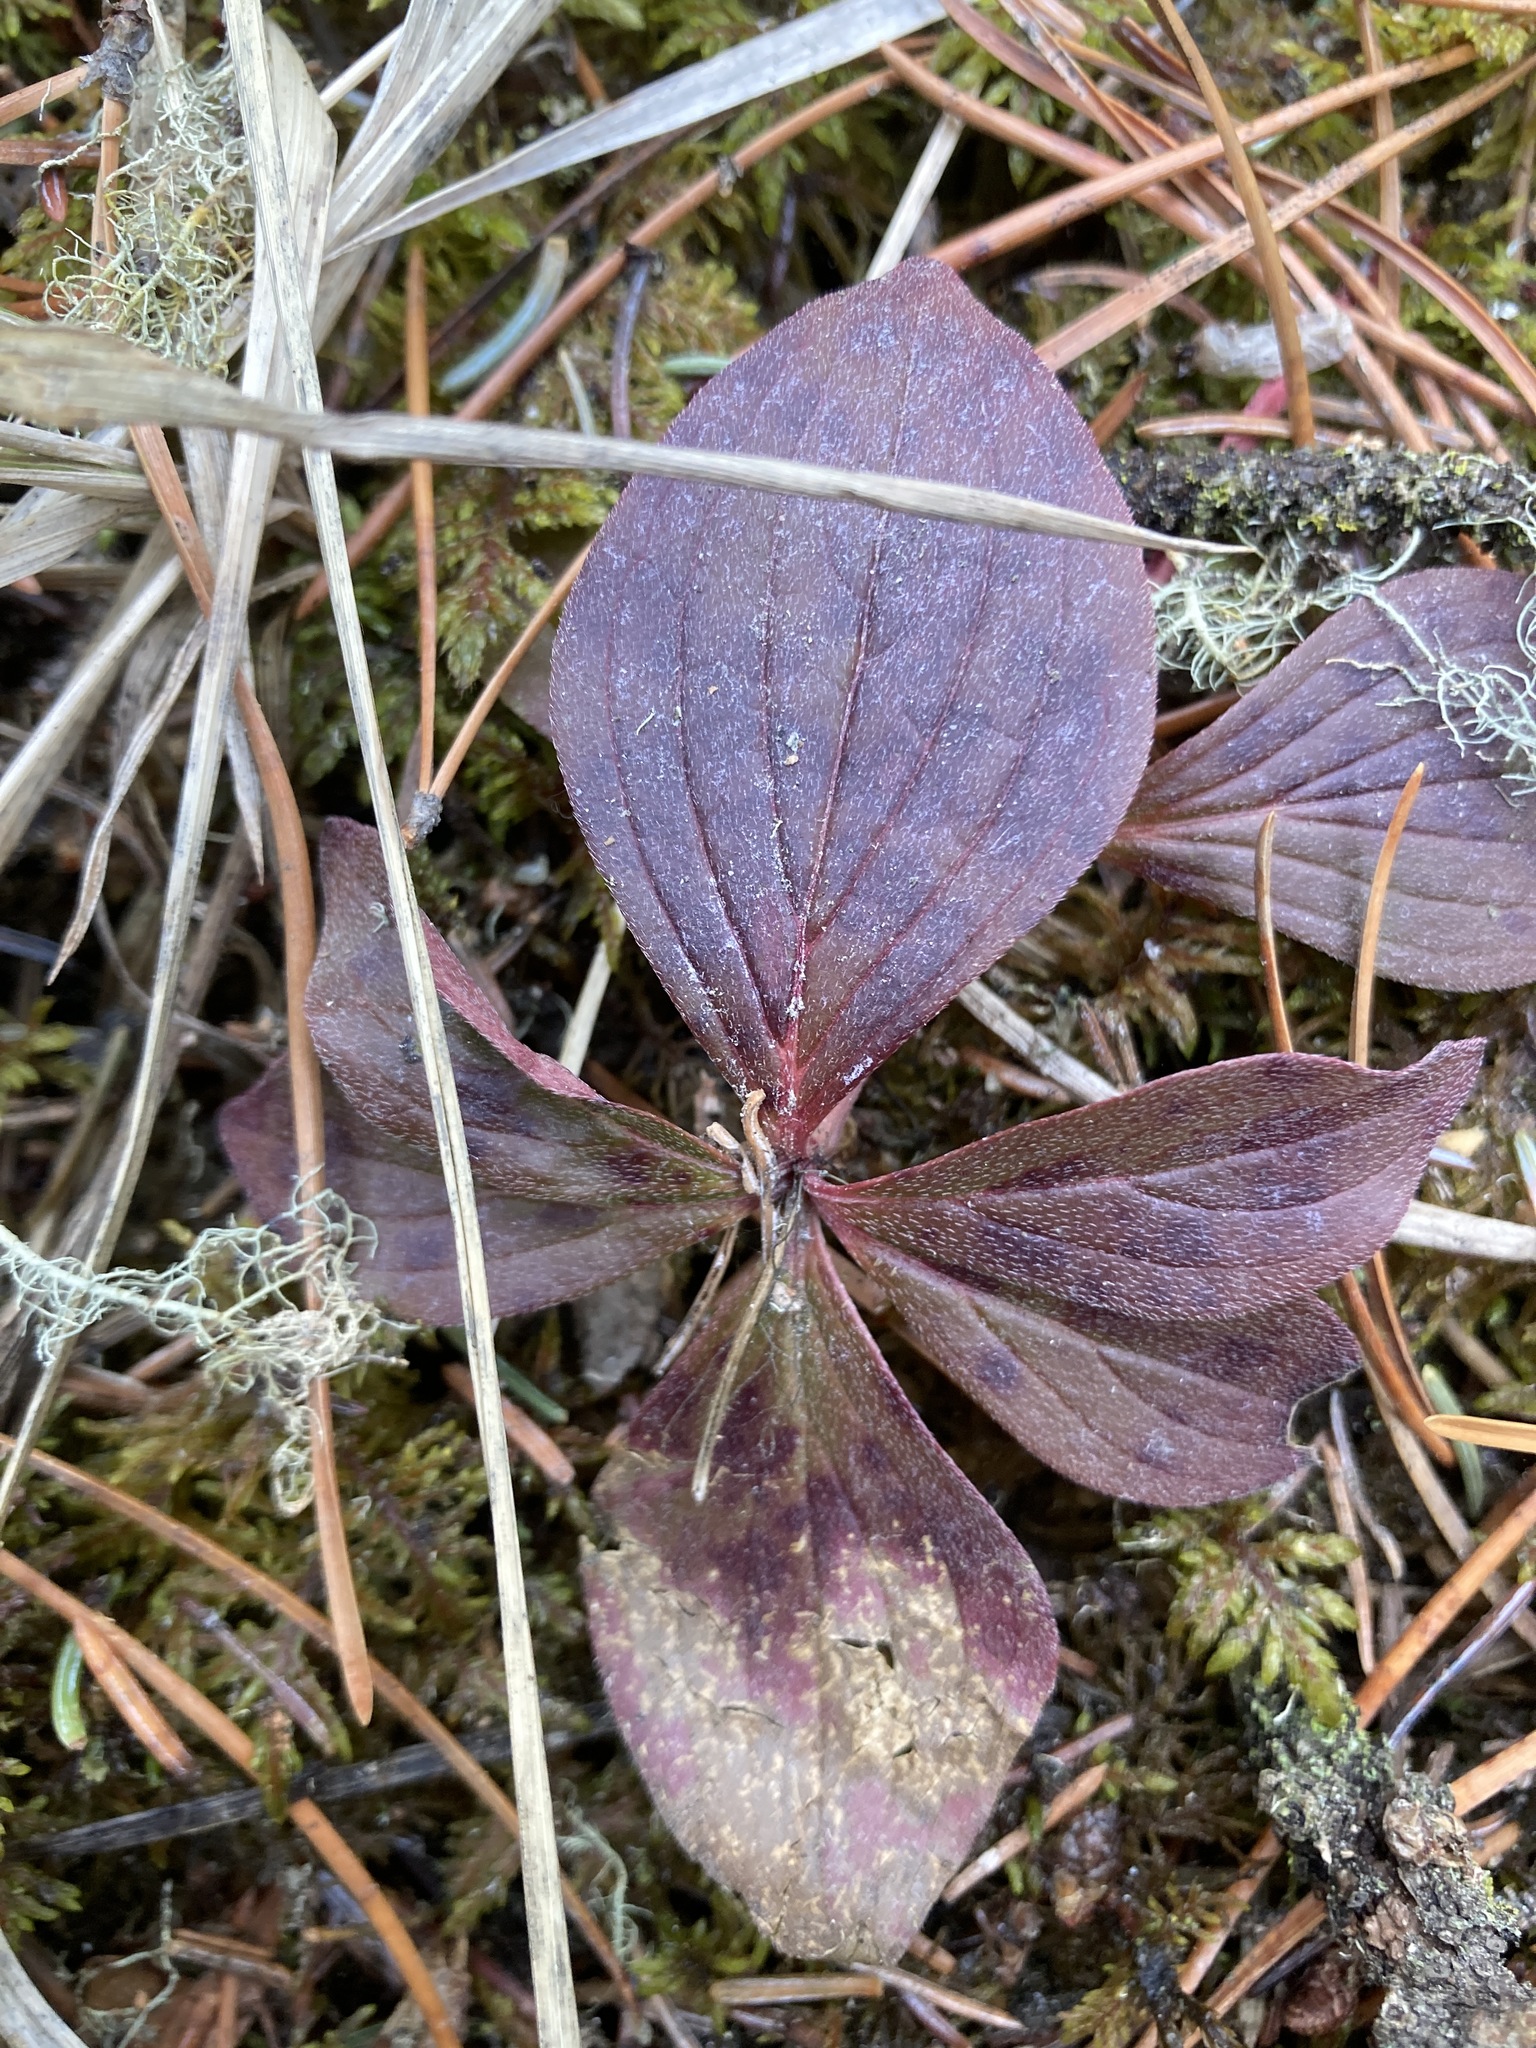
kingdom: Plantae
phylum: Tracheophyta
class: Magnoliopsida
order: Cornales
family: Cornaceae
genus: Cornus
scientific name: Cornus canadensis
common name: Creeping dogwood
